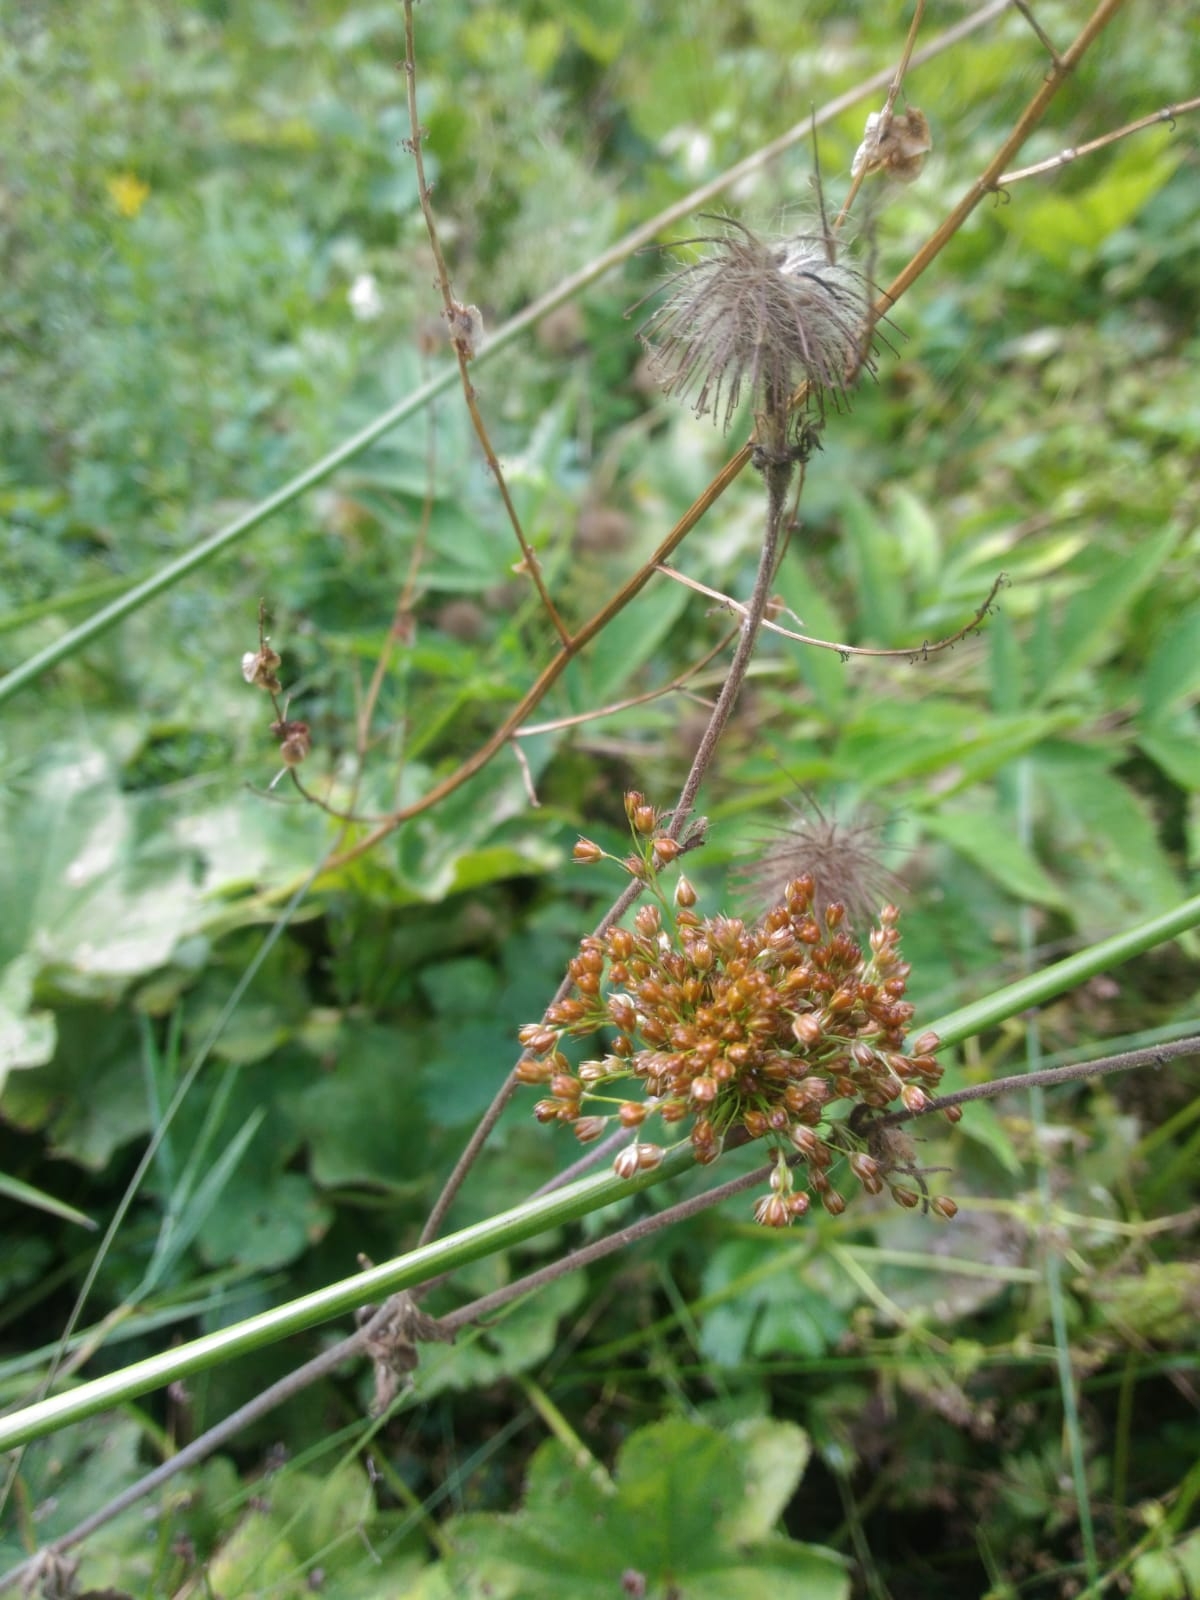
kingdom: Plantae
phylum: Tracheophyta
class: Liliopsida
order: Poales
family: Juncaceae
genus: Juncus
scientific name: Juncus effusus
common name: Soft rush
